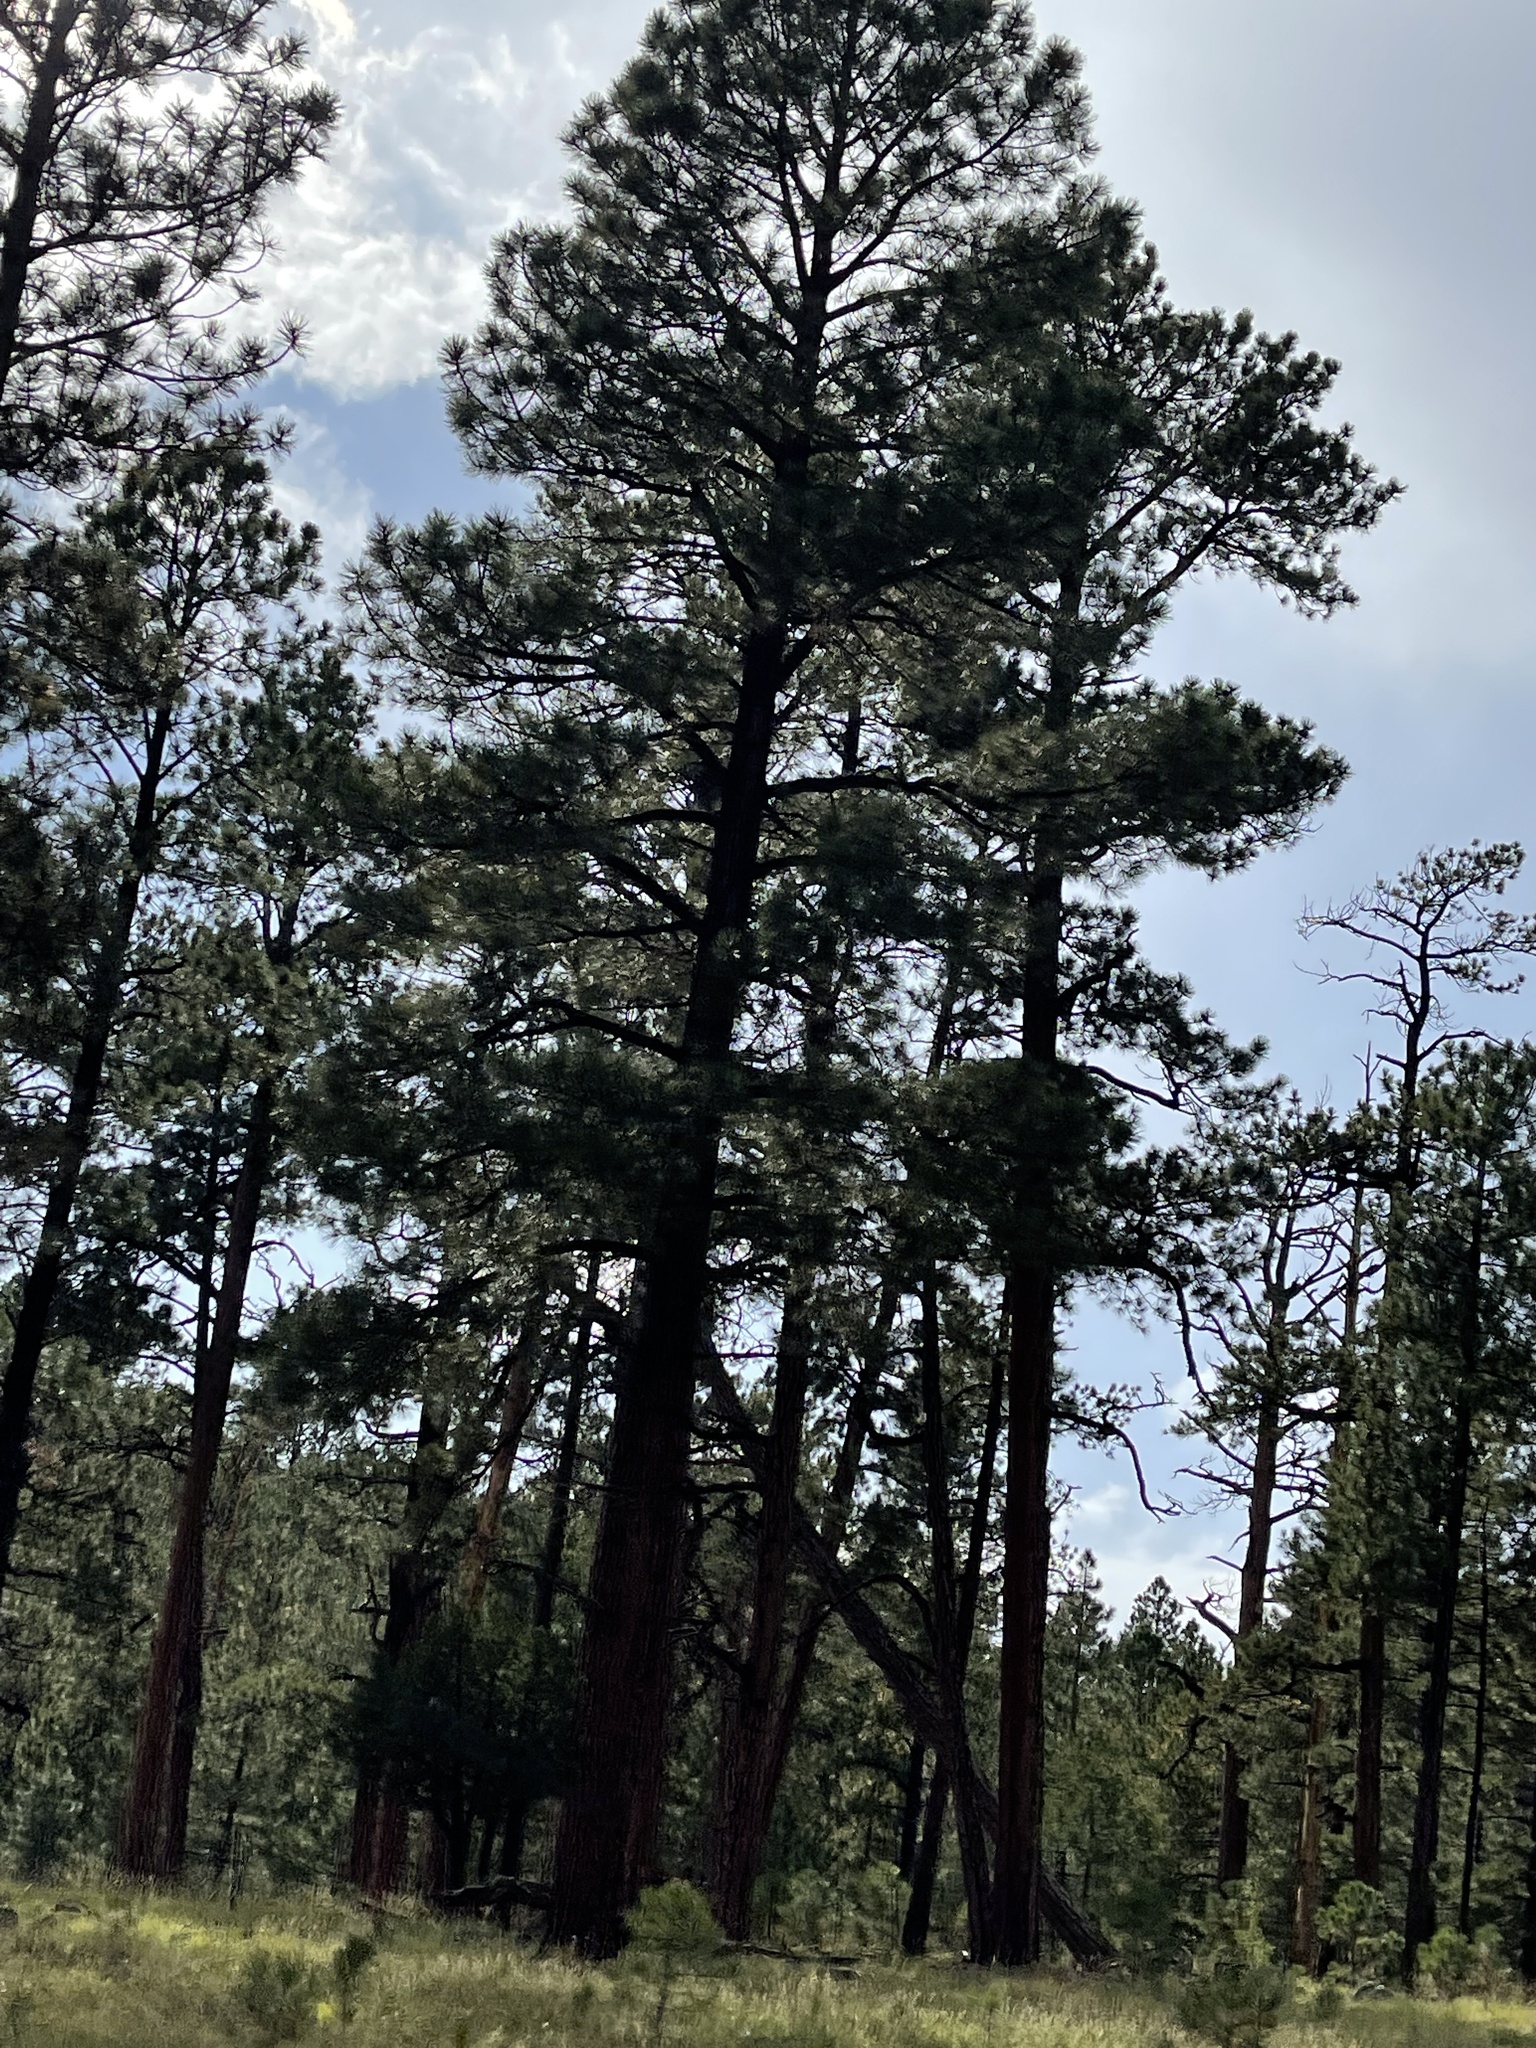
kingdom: Plantae
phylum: Tracheophyta
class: Pinopsida
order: Pinales
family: Pinaceae
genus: Pinus
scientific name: Pinus ponderosa
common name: Western yellow-pine
